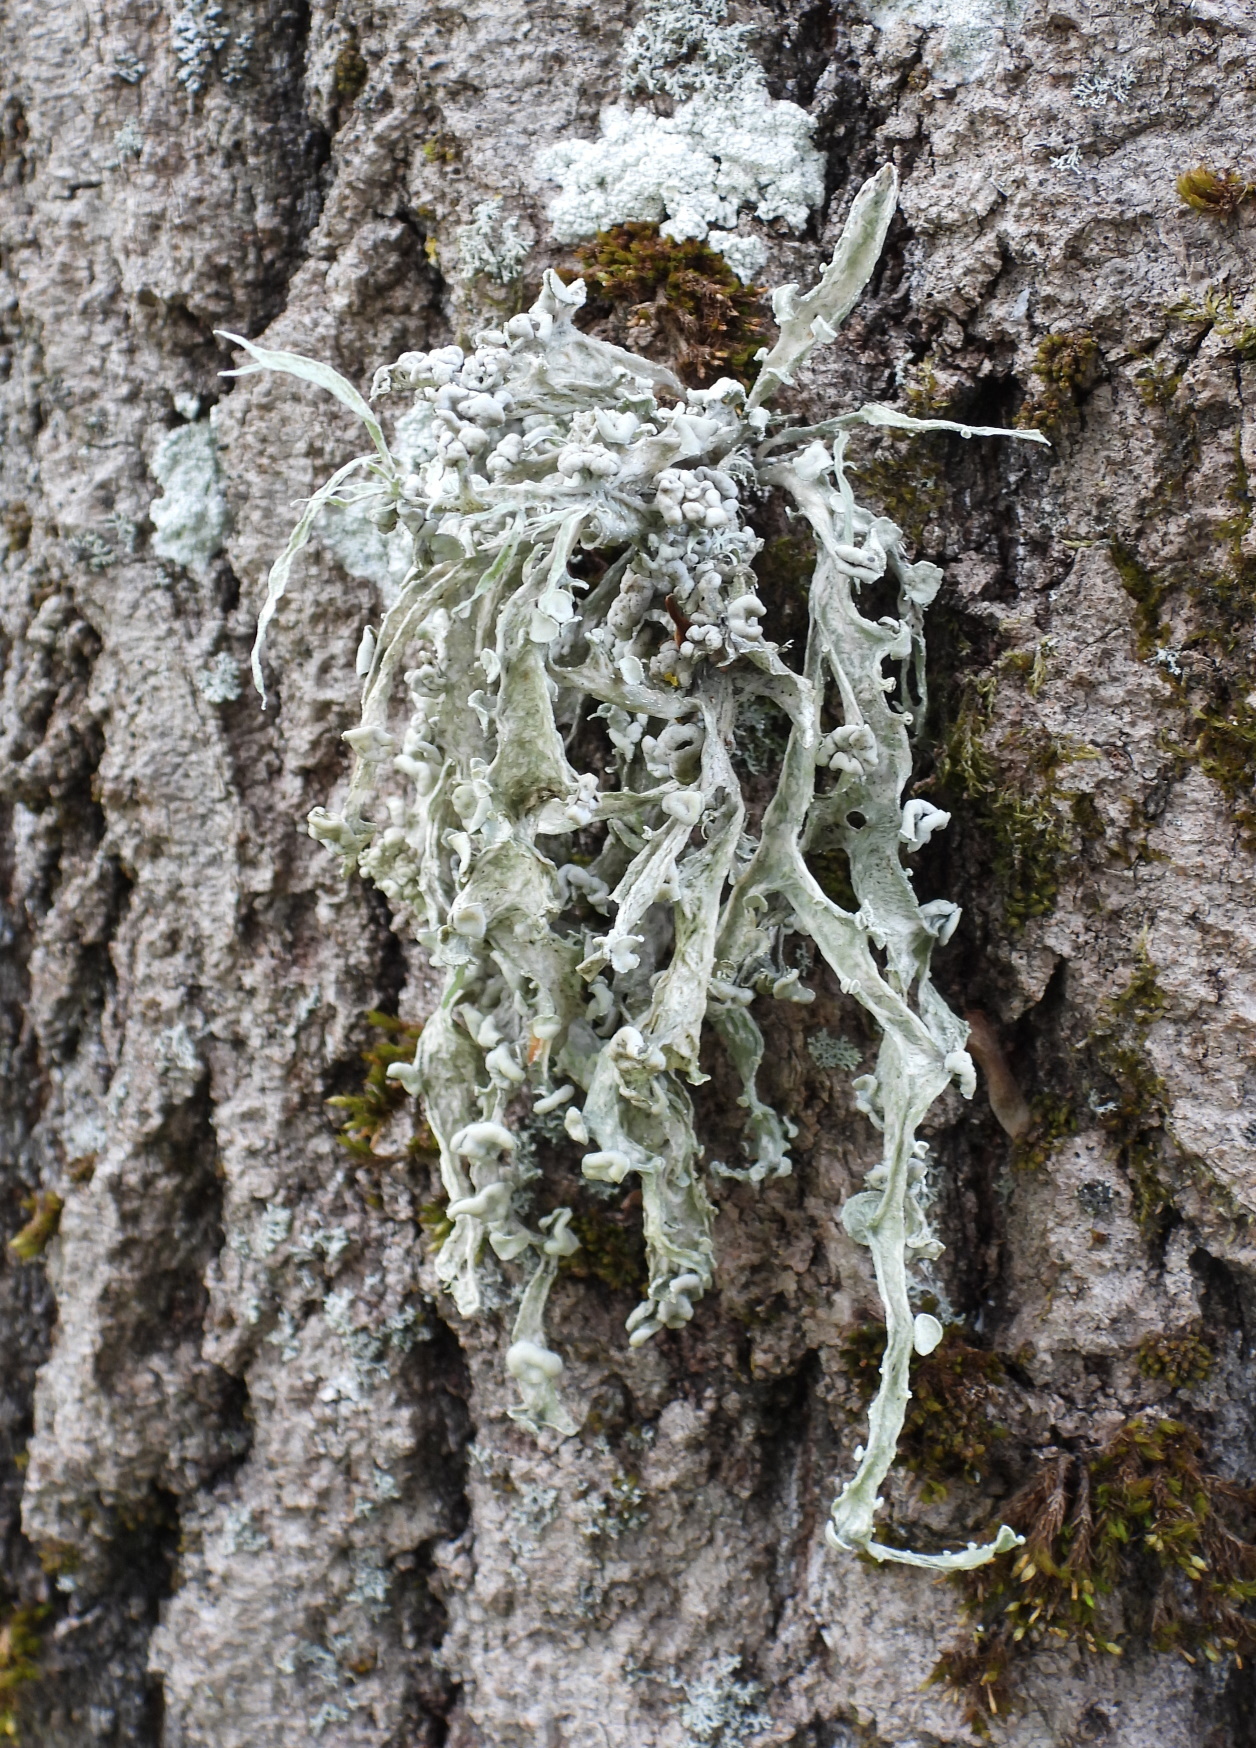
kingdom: Fungi
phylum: Ascomycota
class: Lecanoromycetes
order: Lecanorales
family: Ramalinaceae
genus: Ramalina
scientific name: Ramalina fraxinea
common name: Cartilage lichen
